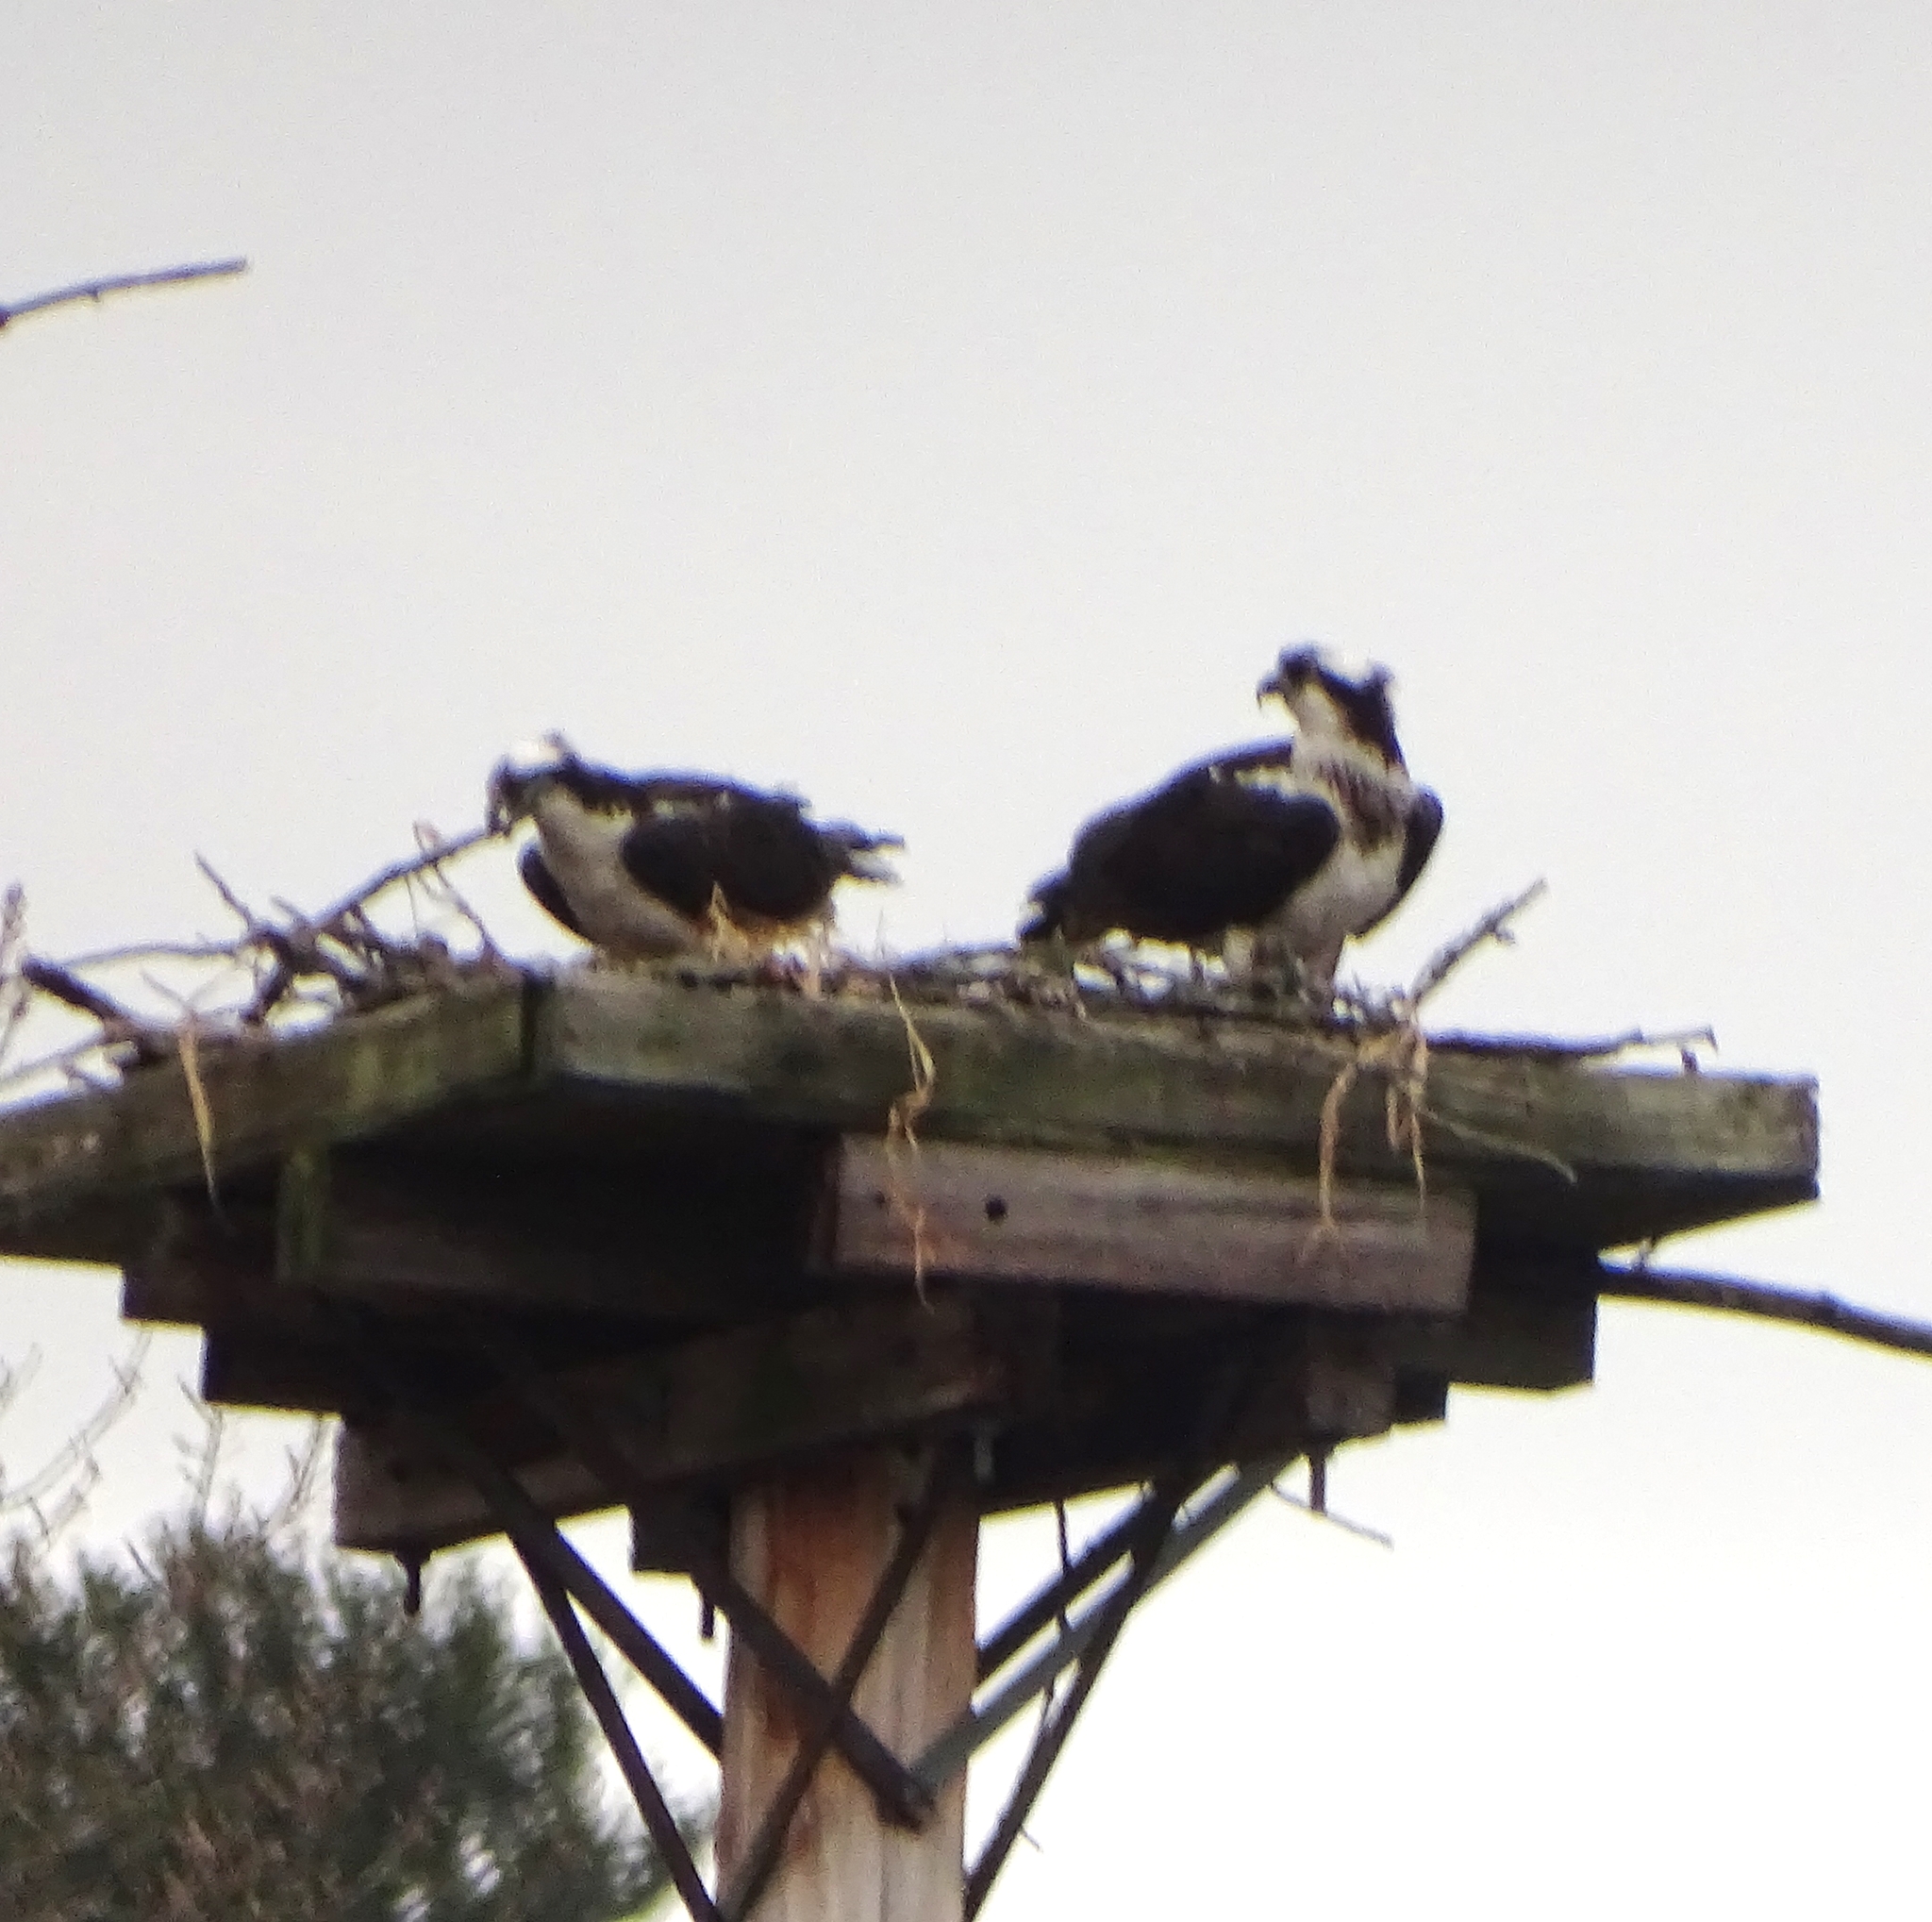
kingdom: Animalia
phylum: Chordata
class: Aves
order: Accipitriformes
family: Pandionidae
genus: Pandion
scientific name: Pandion haliaetus
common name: Osprey
